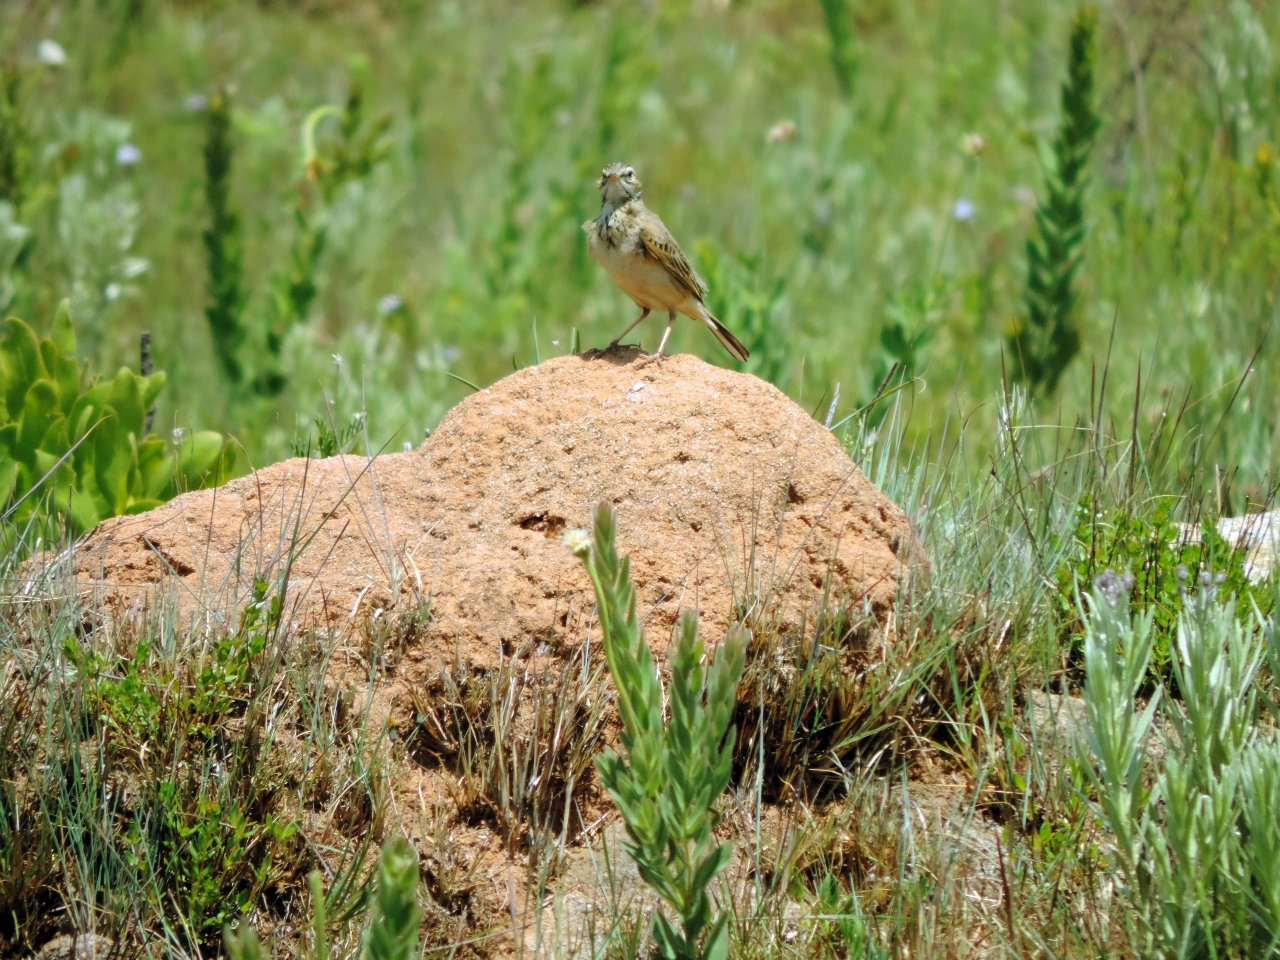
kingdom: Animalia
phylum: Chordata
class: Aves
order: Passeriformes
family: Motacillidae
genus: Anthus
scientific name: Anthus cinnamomeus
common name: African pipit
